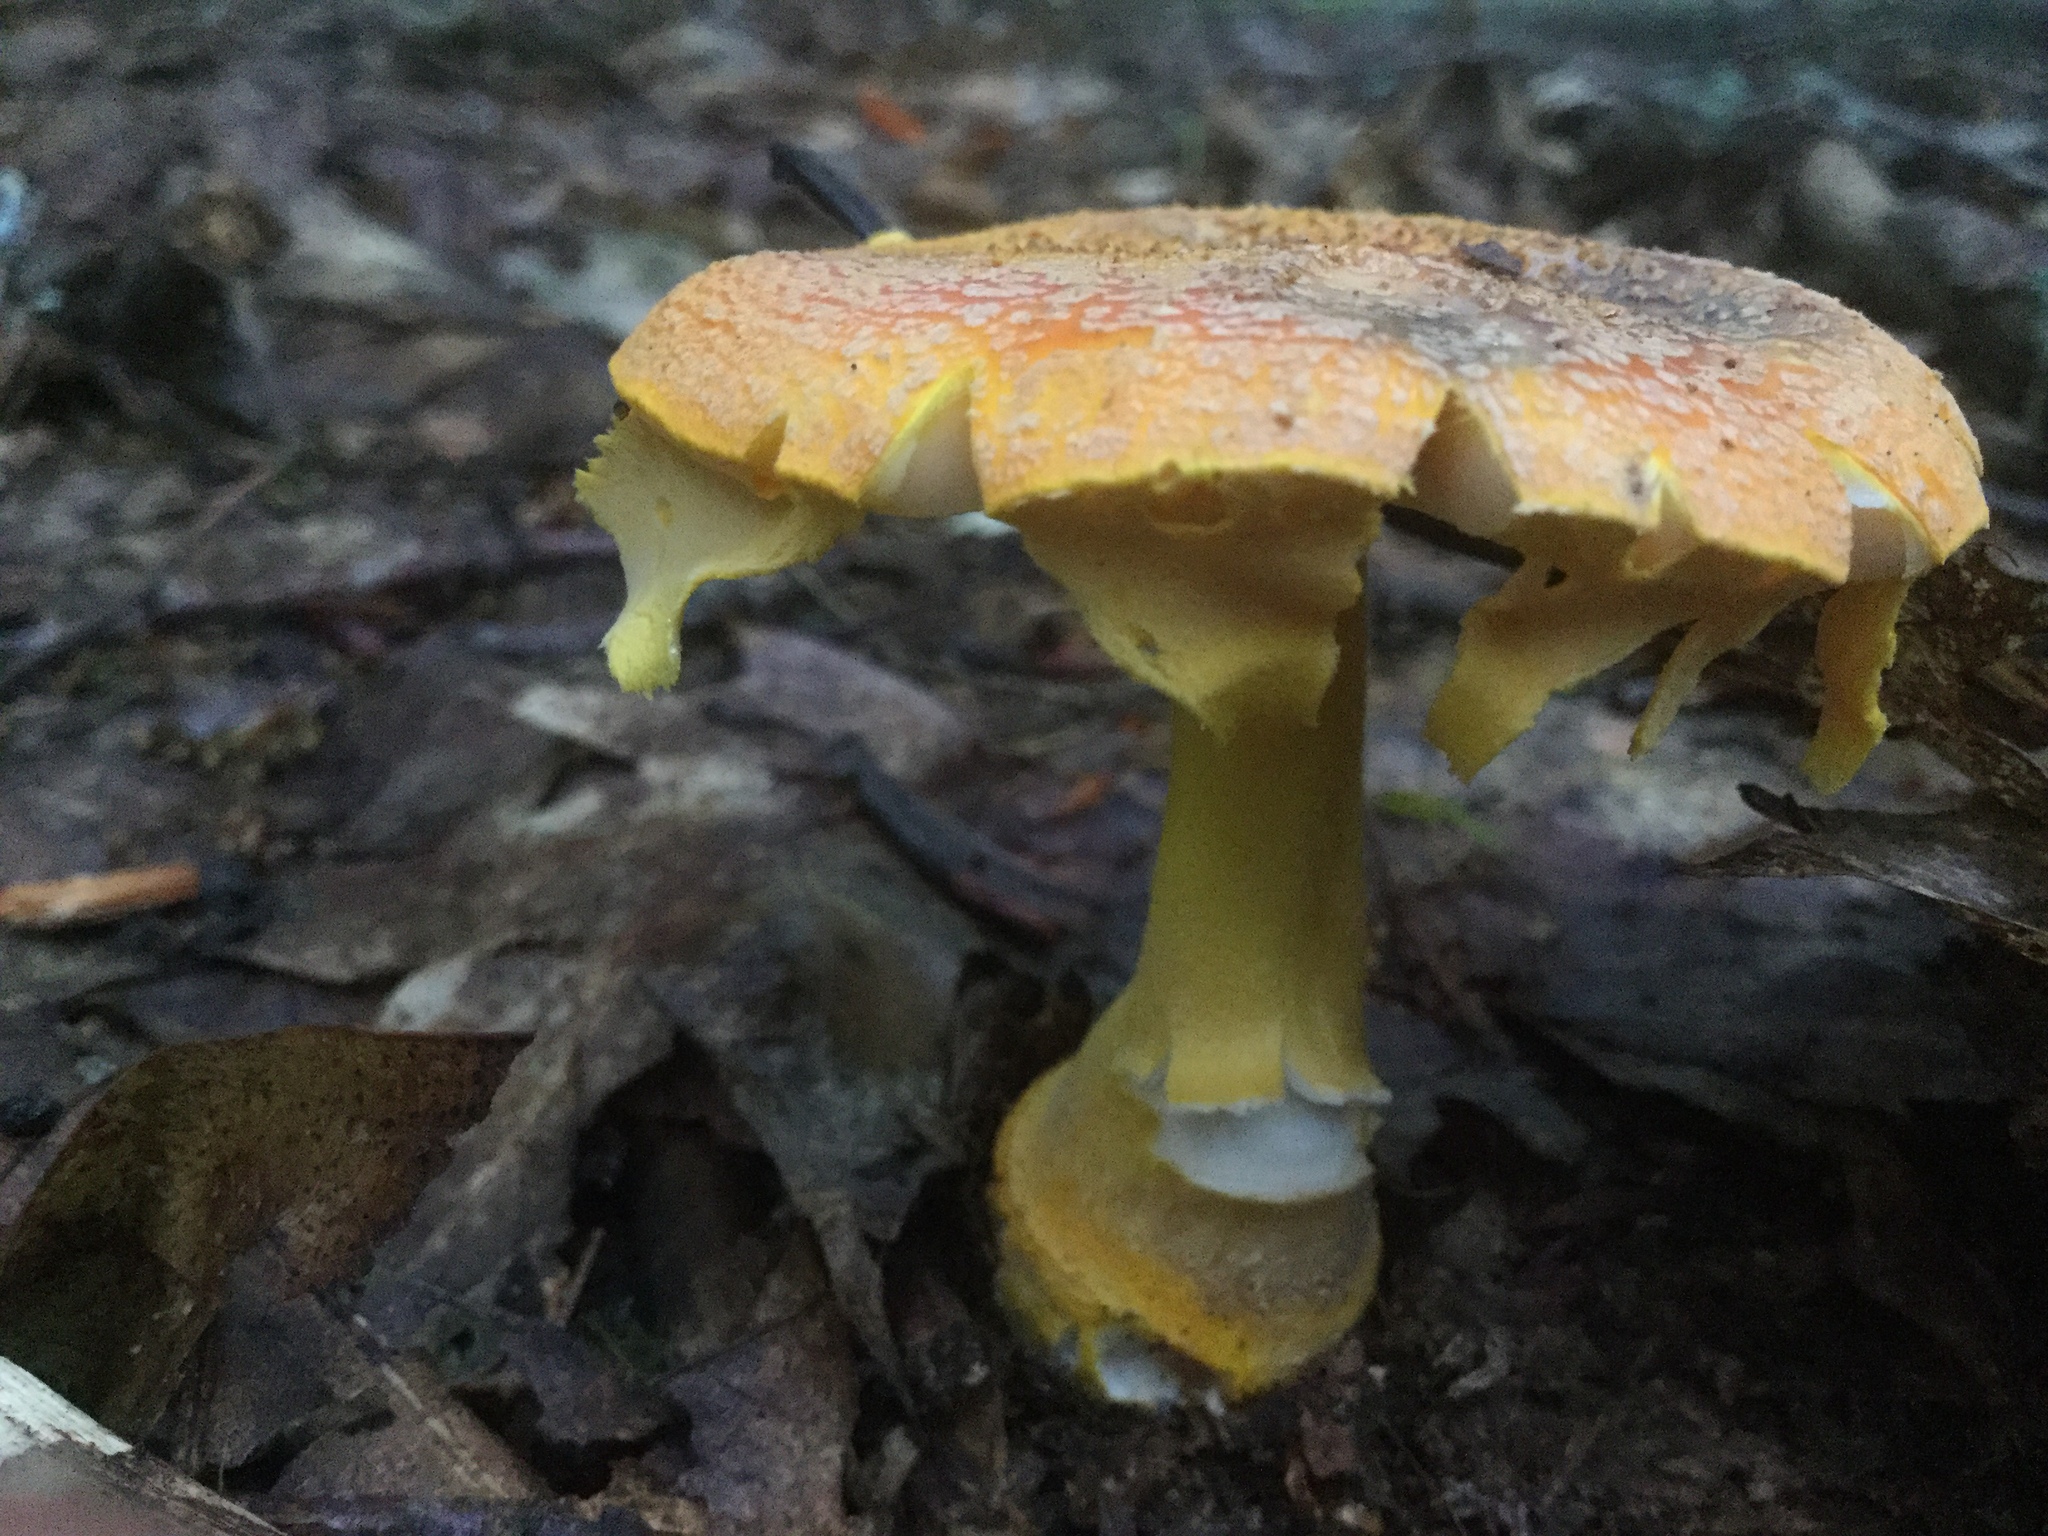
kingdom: Fungi
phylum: Basidiomycota
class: Agaricomycetes
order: Agaricales
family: Amanitaceae
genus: Amanita
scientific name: Amanita flavoconia
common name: Yellow patches
